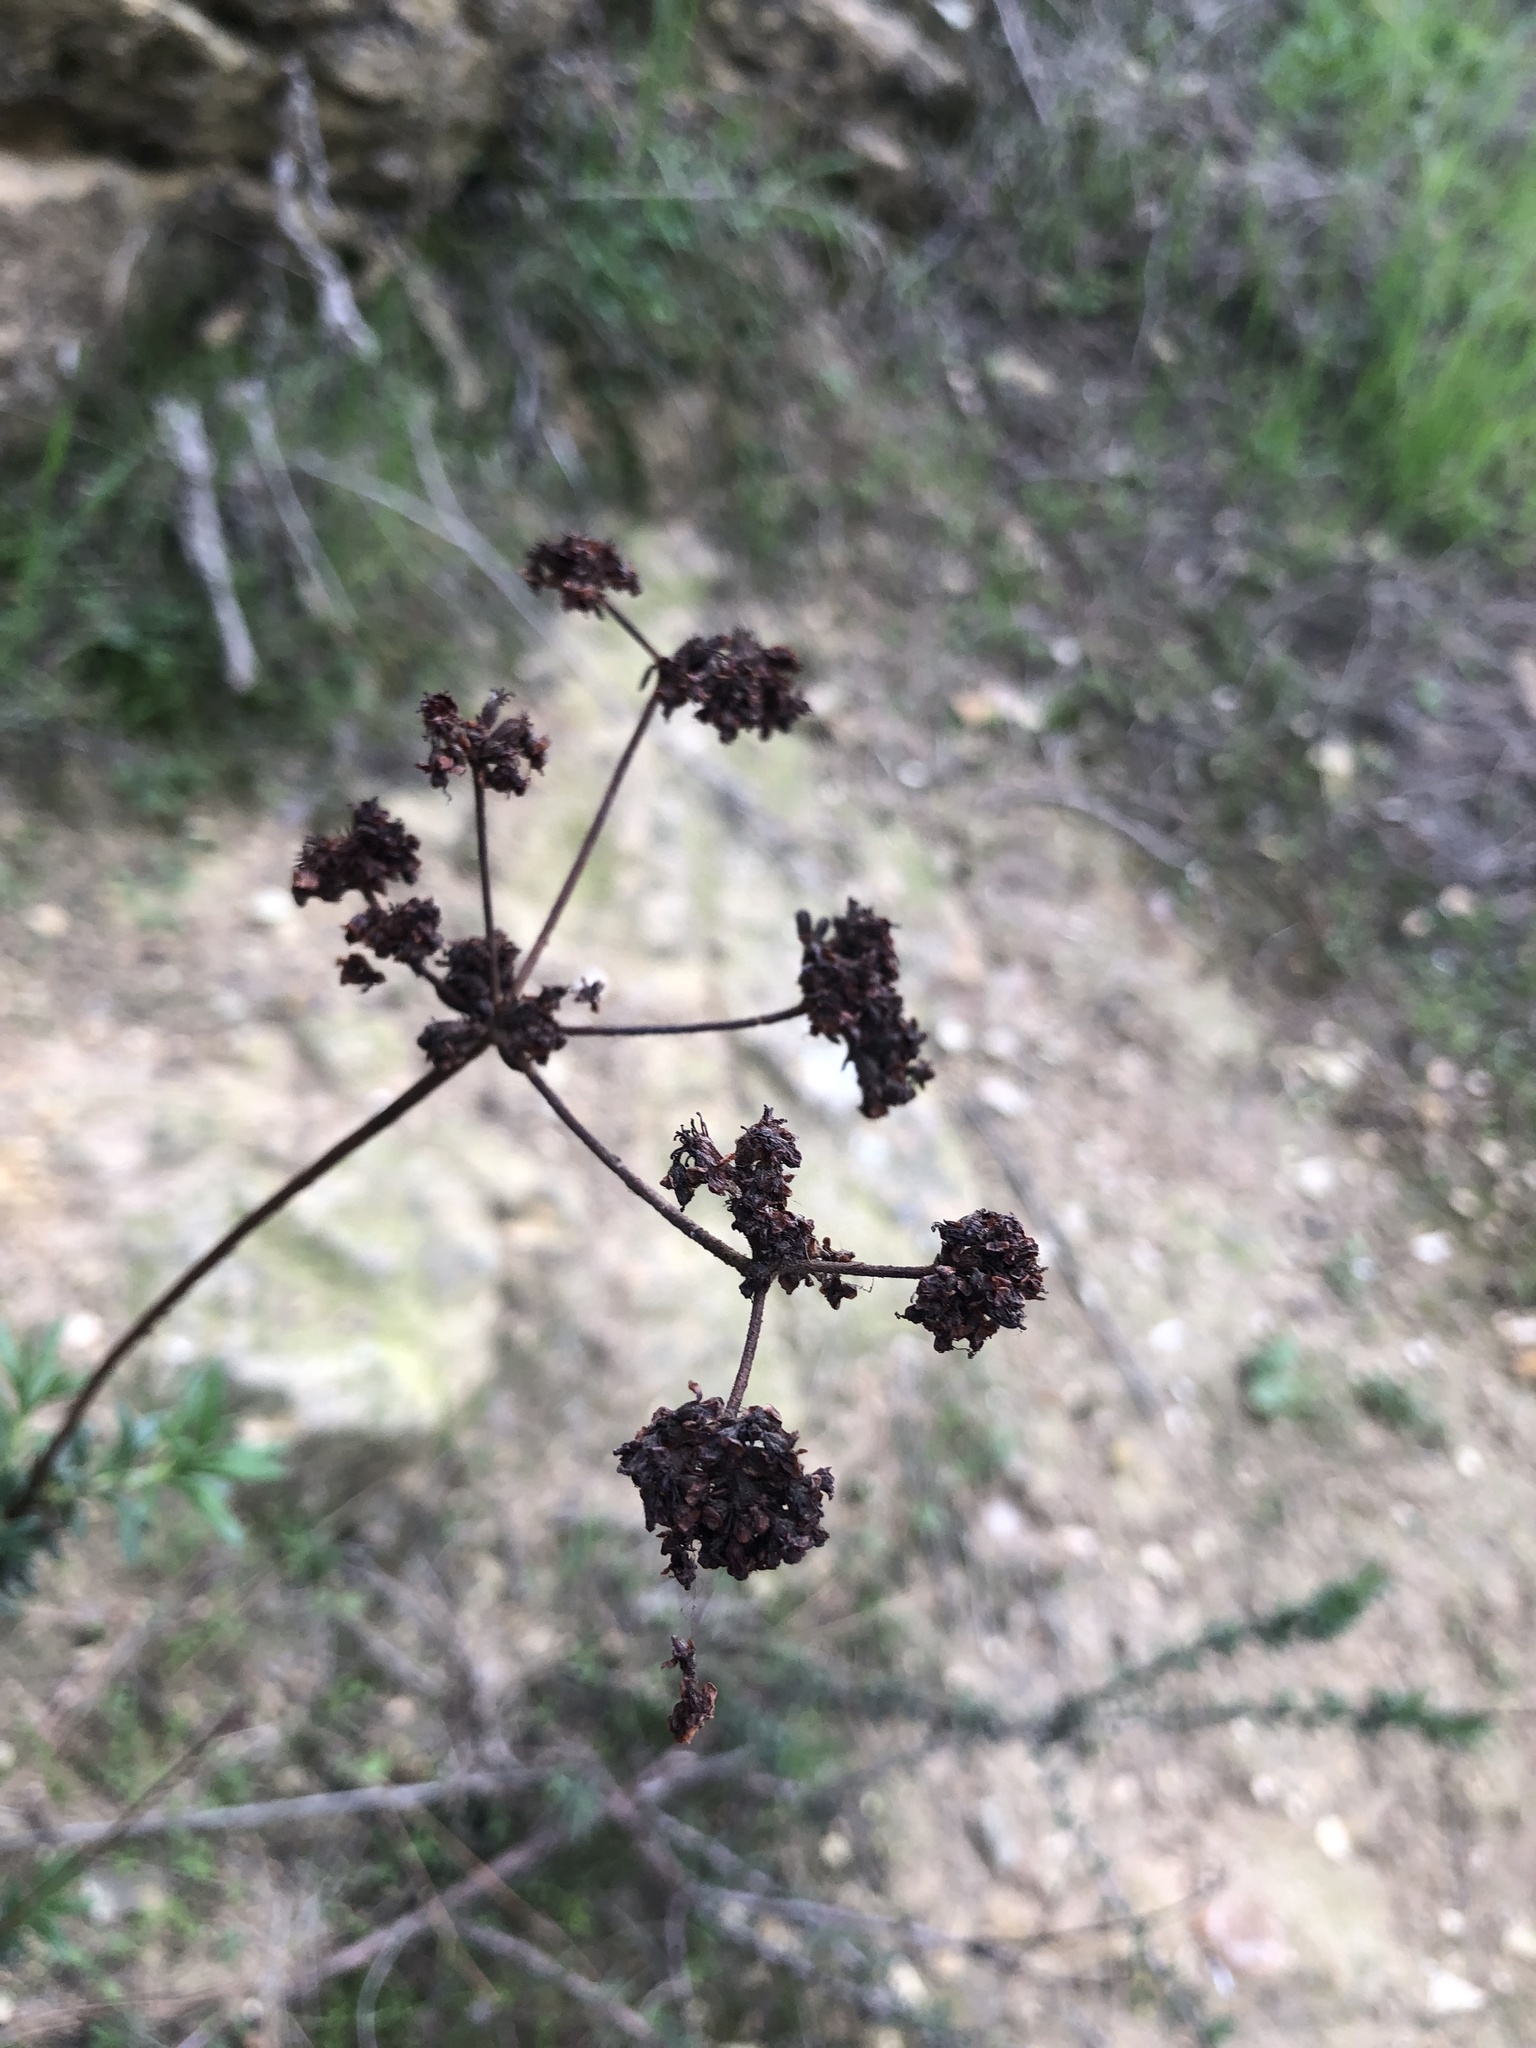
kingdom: Plantae
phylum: Tracheophyta
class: Magnoliopsida
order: Caryophyllales
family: Polygonaceae
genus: Eriogonum
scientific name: Eriogonum fasciculatum
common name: California wild buckwheat
